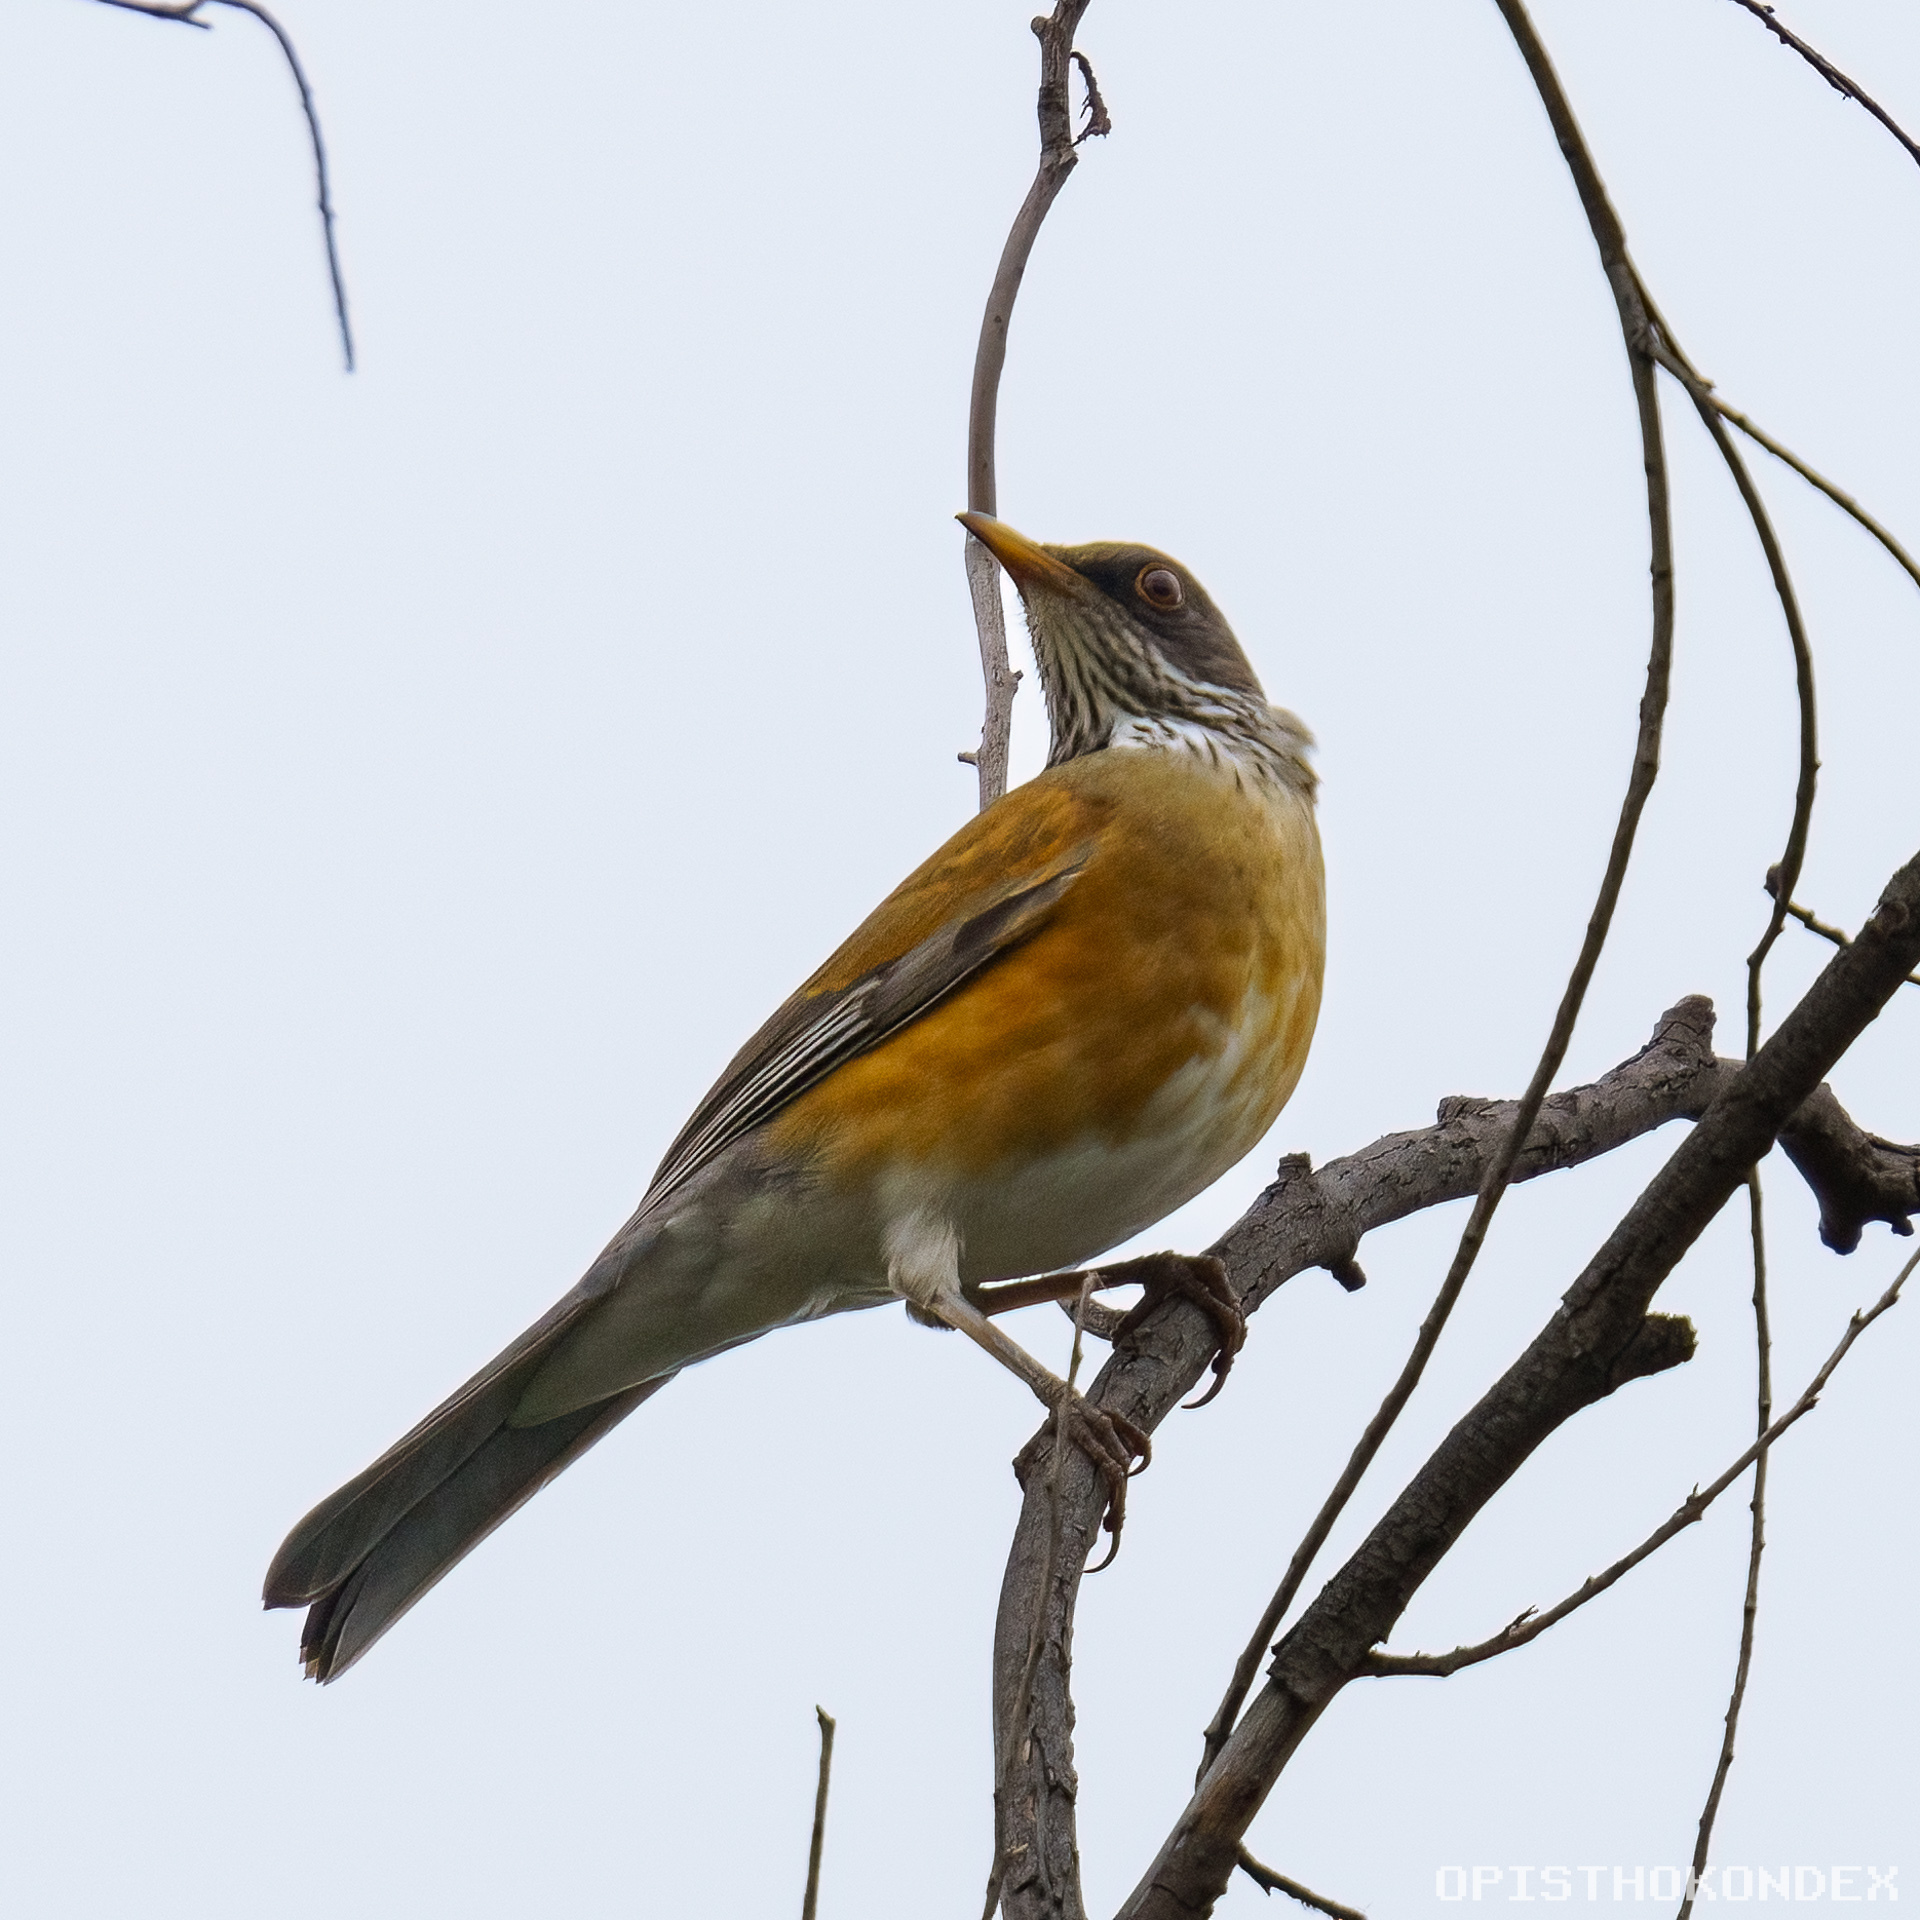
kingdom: Animalia
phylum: Chordata
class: Aves
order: Passeriformes
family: Turdidae
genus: Turdus
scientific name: Turdus rufopalliatus
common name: Rufous-backed robin
